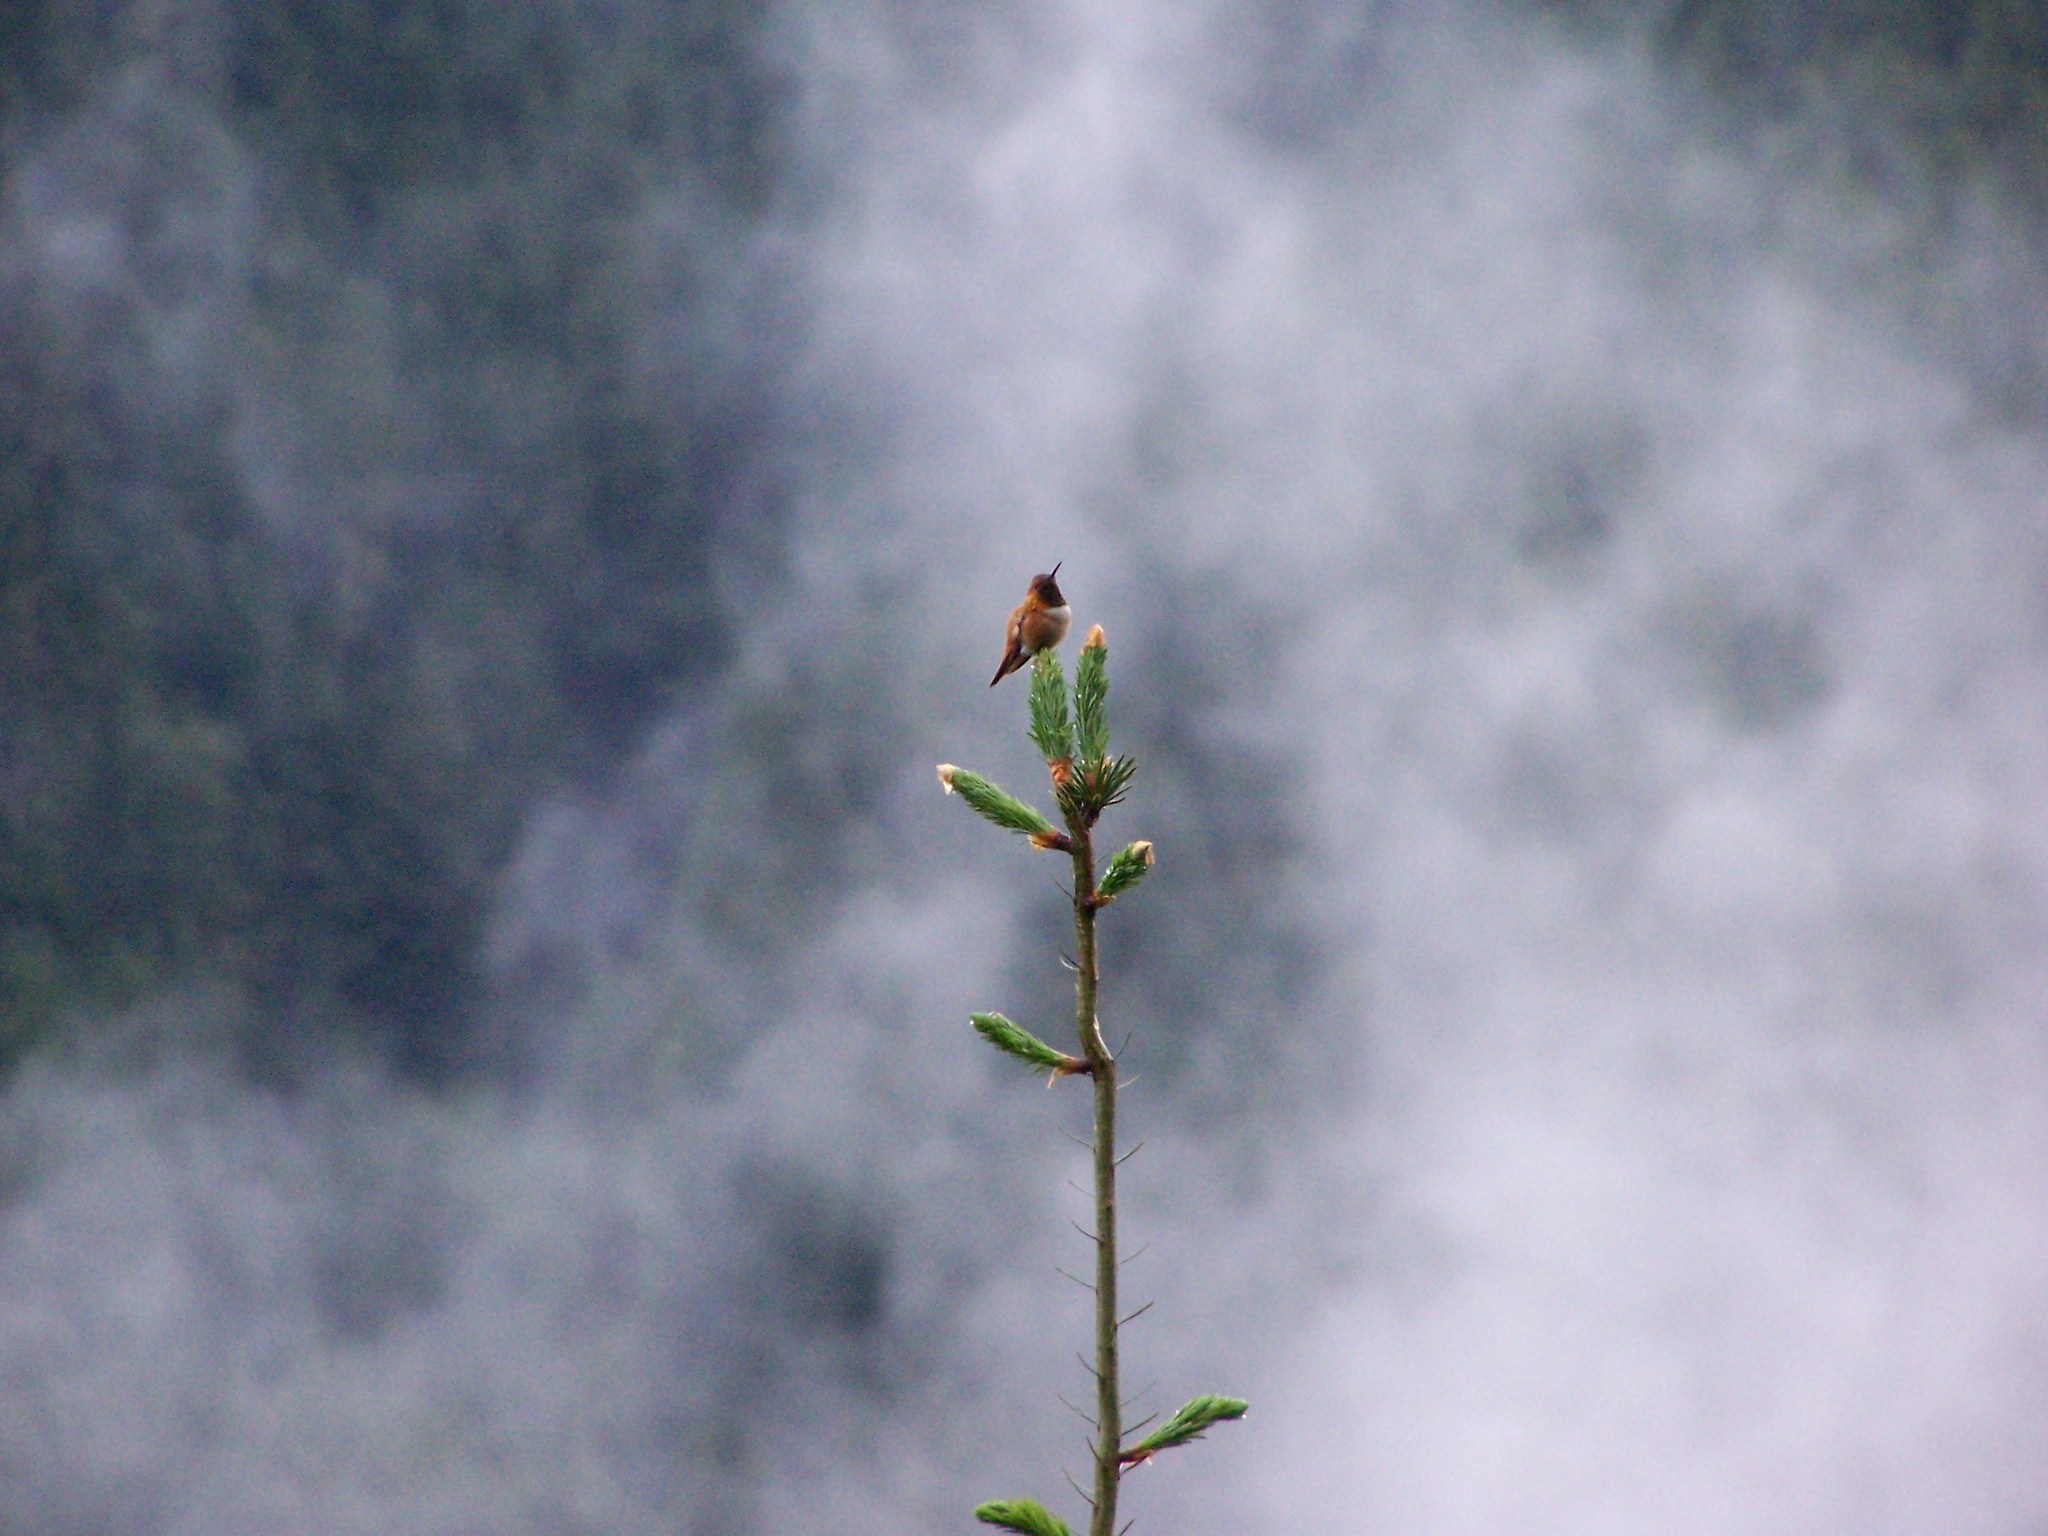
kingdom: Animalia
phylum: Chordata
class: Aves
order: Apodiformes
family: Trochilidae
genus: Selasphorus
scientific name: Selasphorus rufus
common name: Rufous hummingbird
